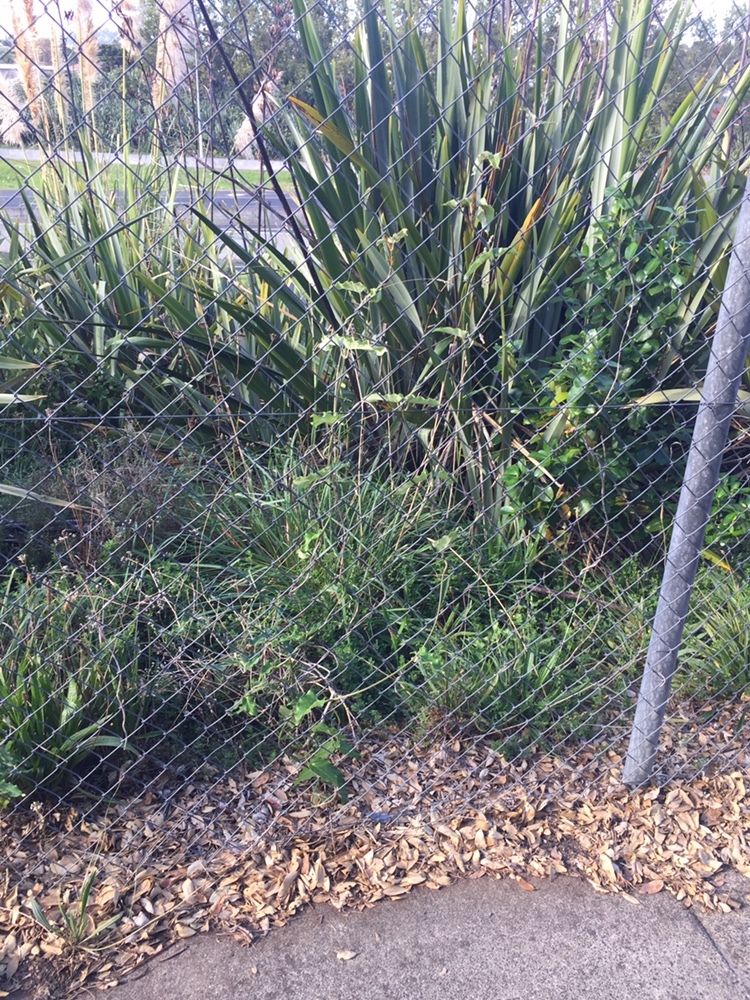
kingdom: Animalia
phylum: Arthropoda
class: Insecta
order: Hemiptera
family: Aphididae
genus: Aphis
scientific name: Aphis nerii
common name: Oleander aphid
